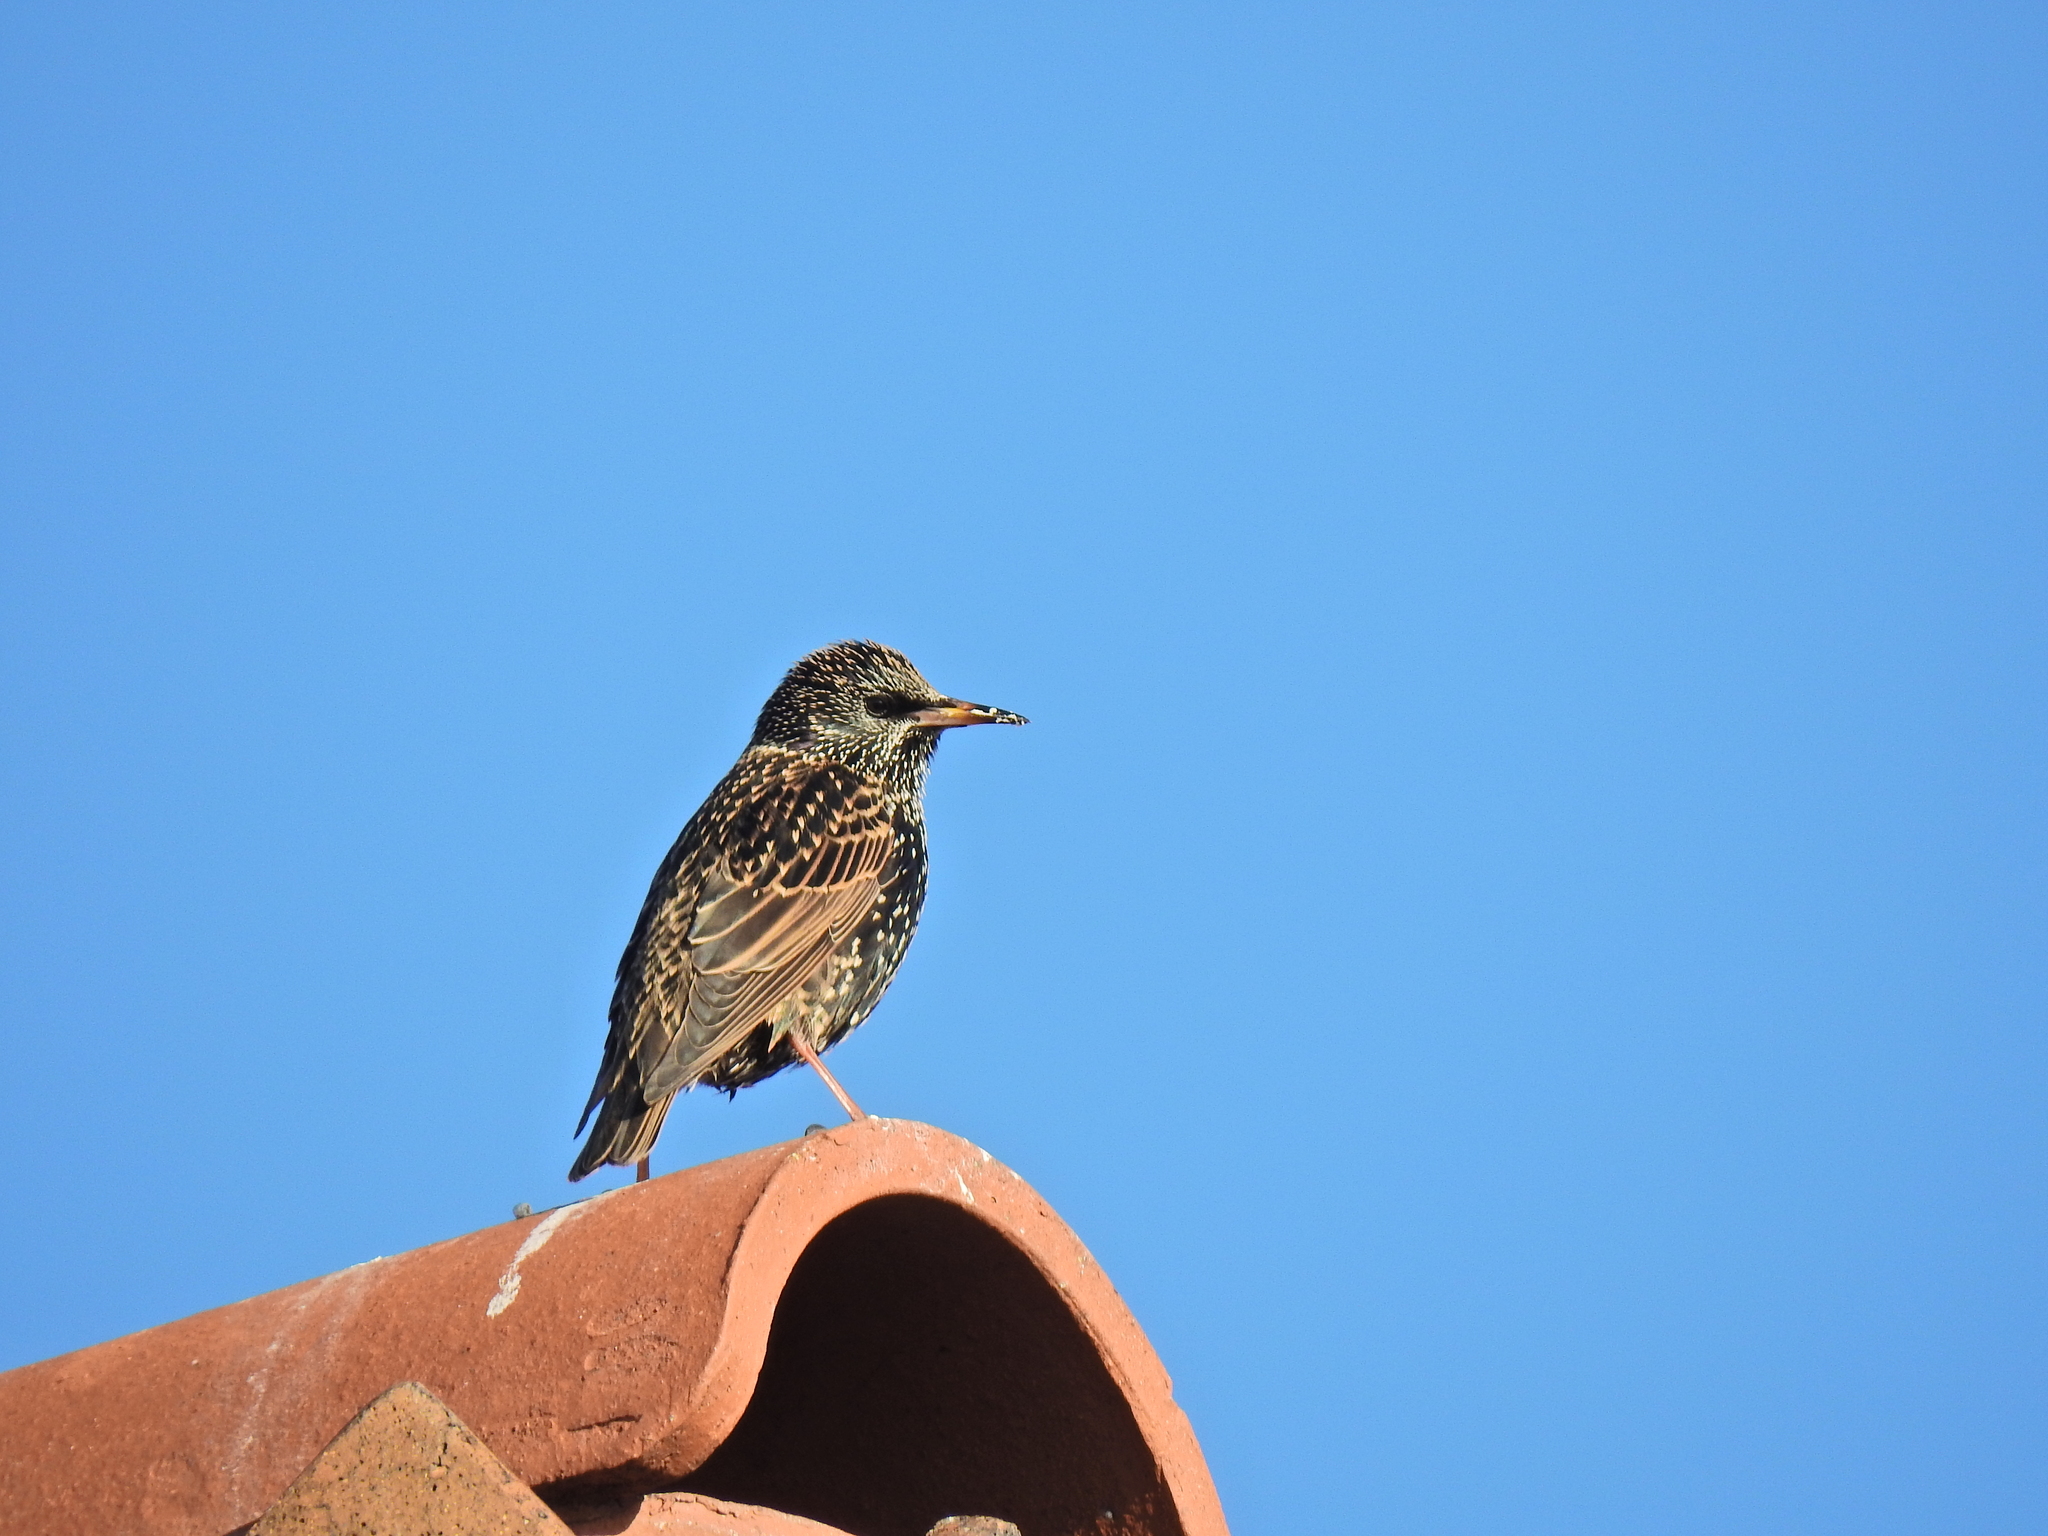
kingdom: Animalia
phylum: Chordata
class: Aves
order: Passeriformes
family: Sturnidae
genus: Sturnus
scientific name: Sturnus vulgaris
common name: Common starling
